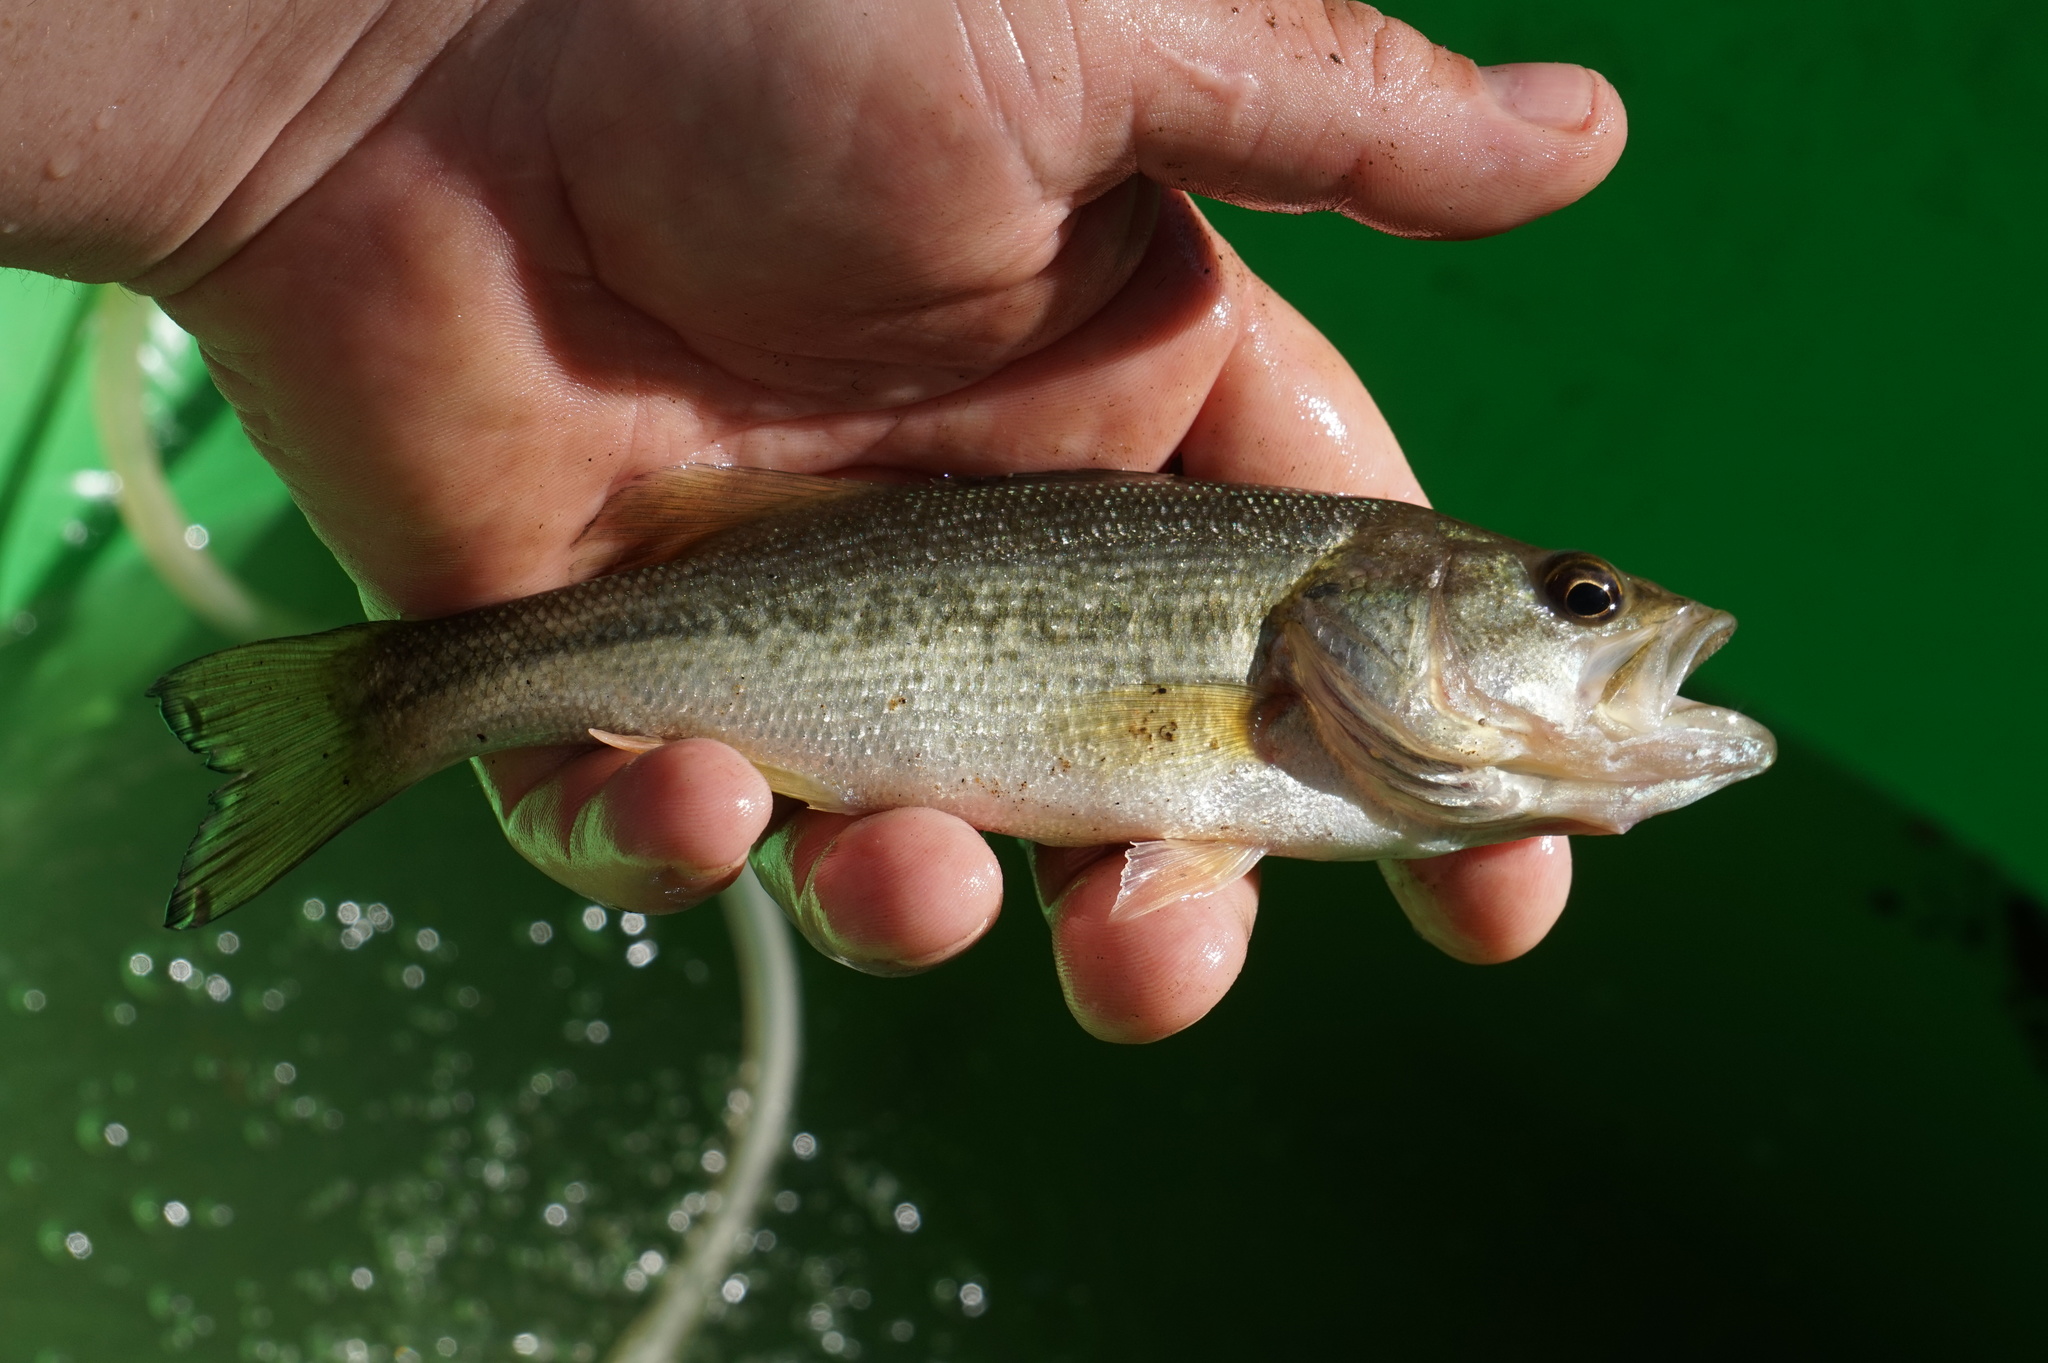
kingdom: Animalia
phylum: Chordata
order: Perciformes
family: Centrarchidae
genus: Micropterus
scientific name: Micropterus
